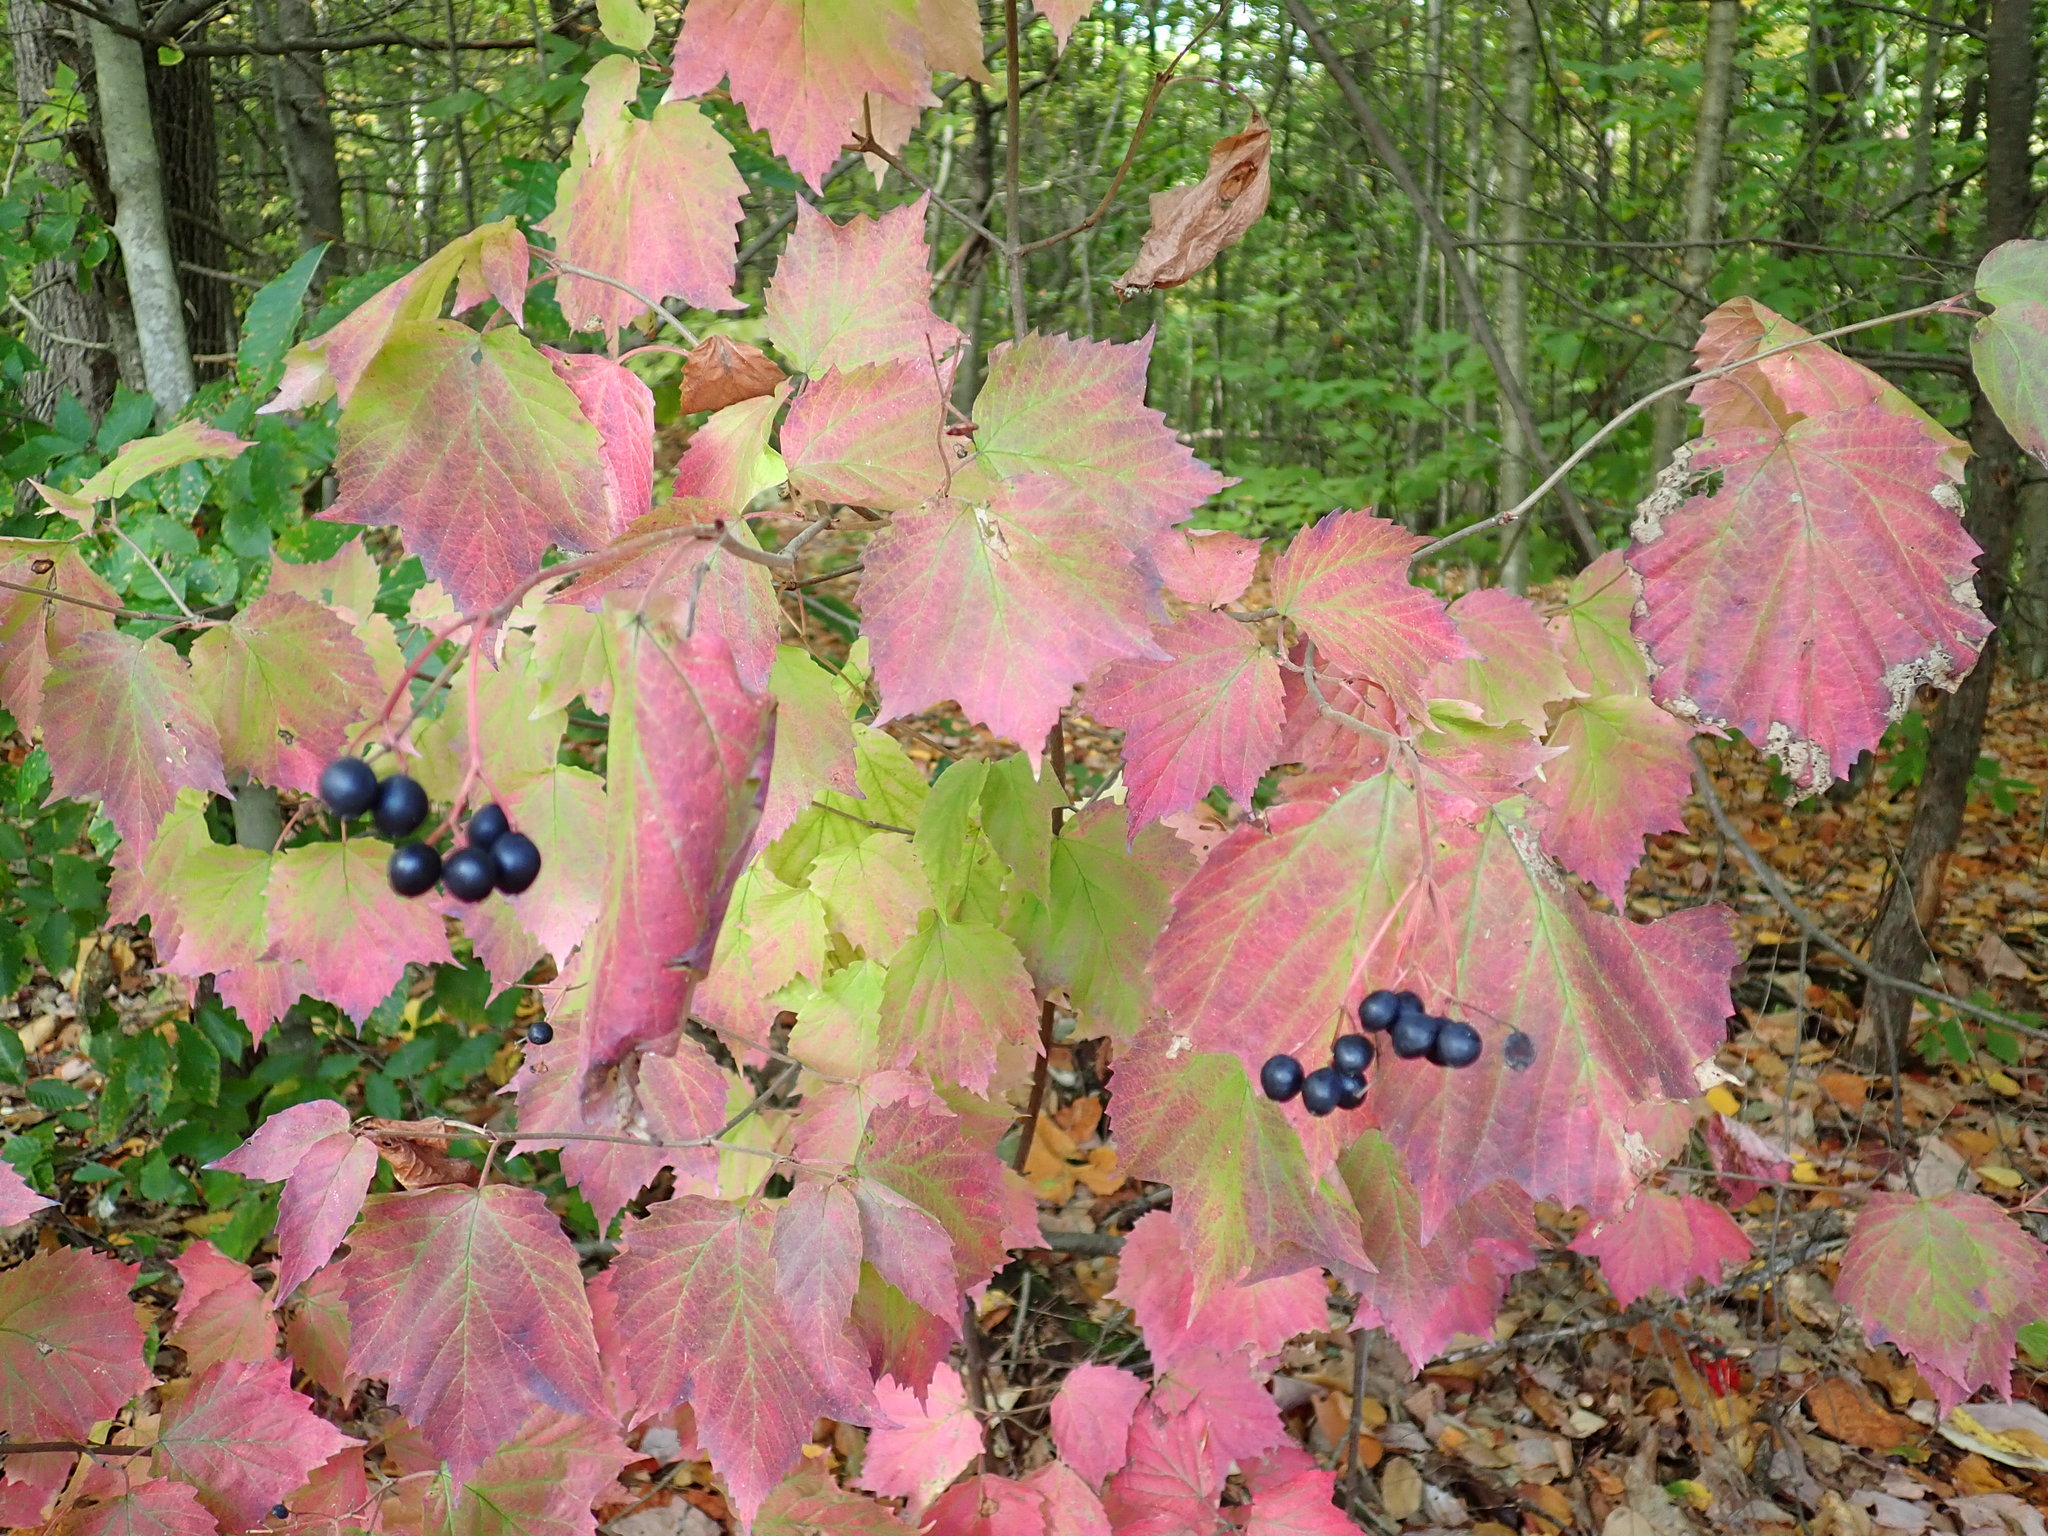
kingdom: Plantae
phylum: Tracheophyta
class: Magnoliopsida
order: Dipsacales
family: Viburnaceae
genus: Viburnum
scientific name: Viburnum acerifolium
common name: Dockmackie
